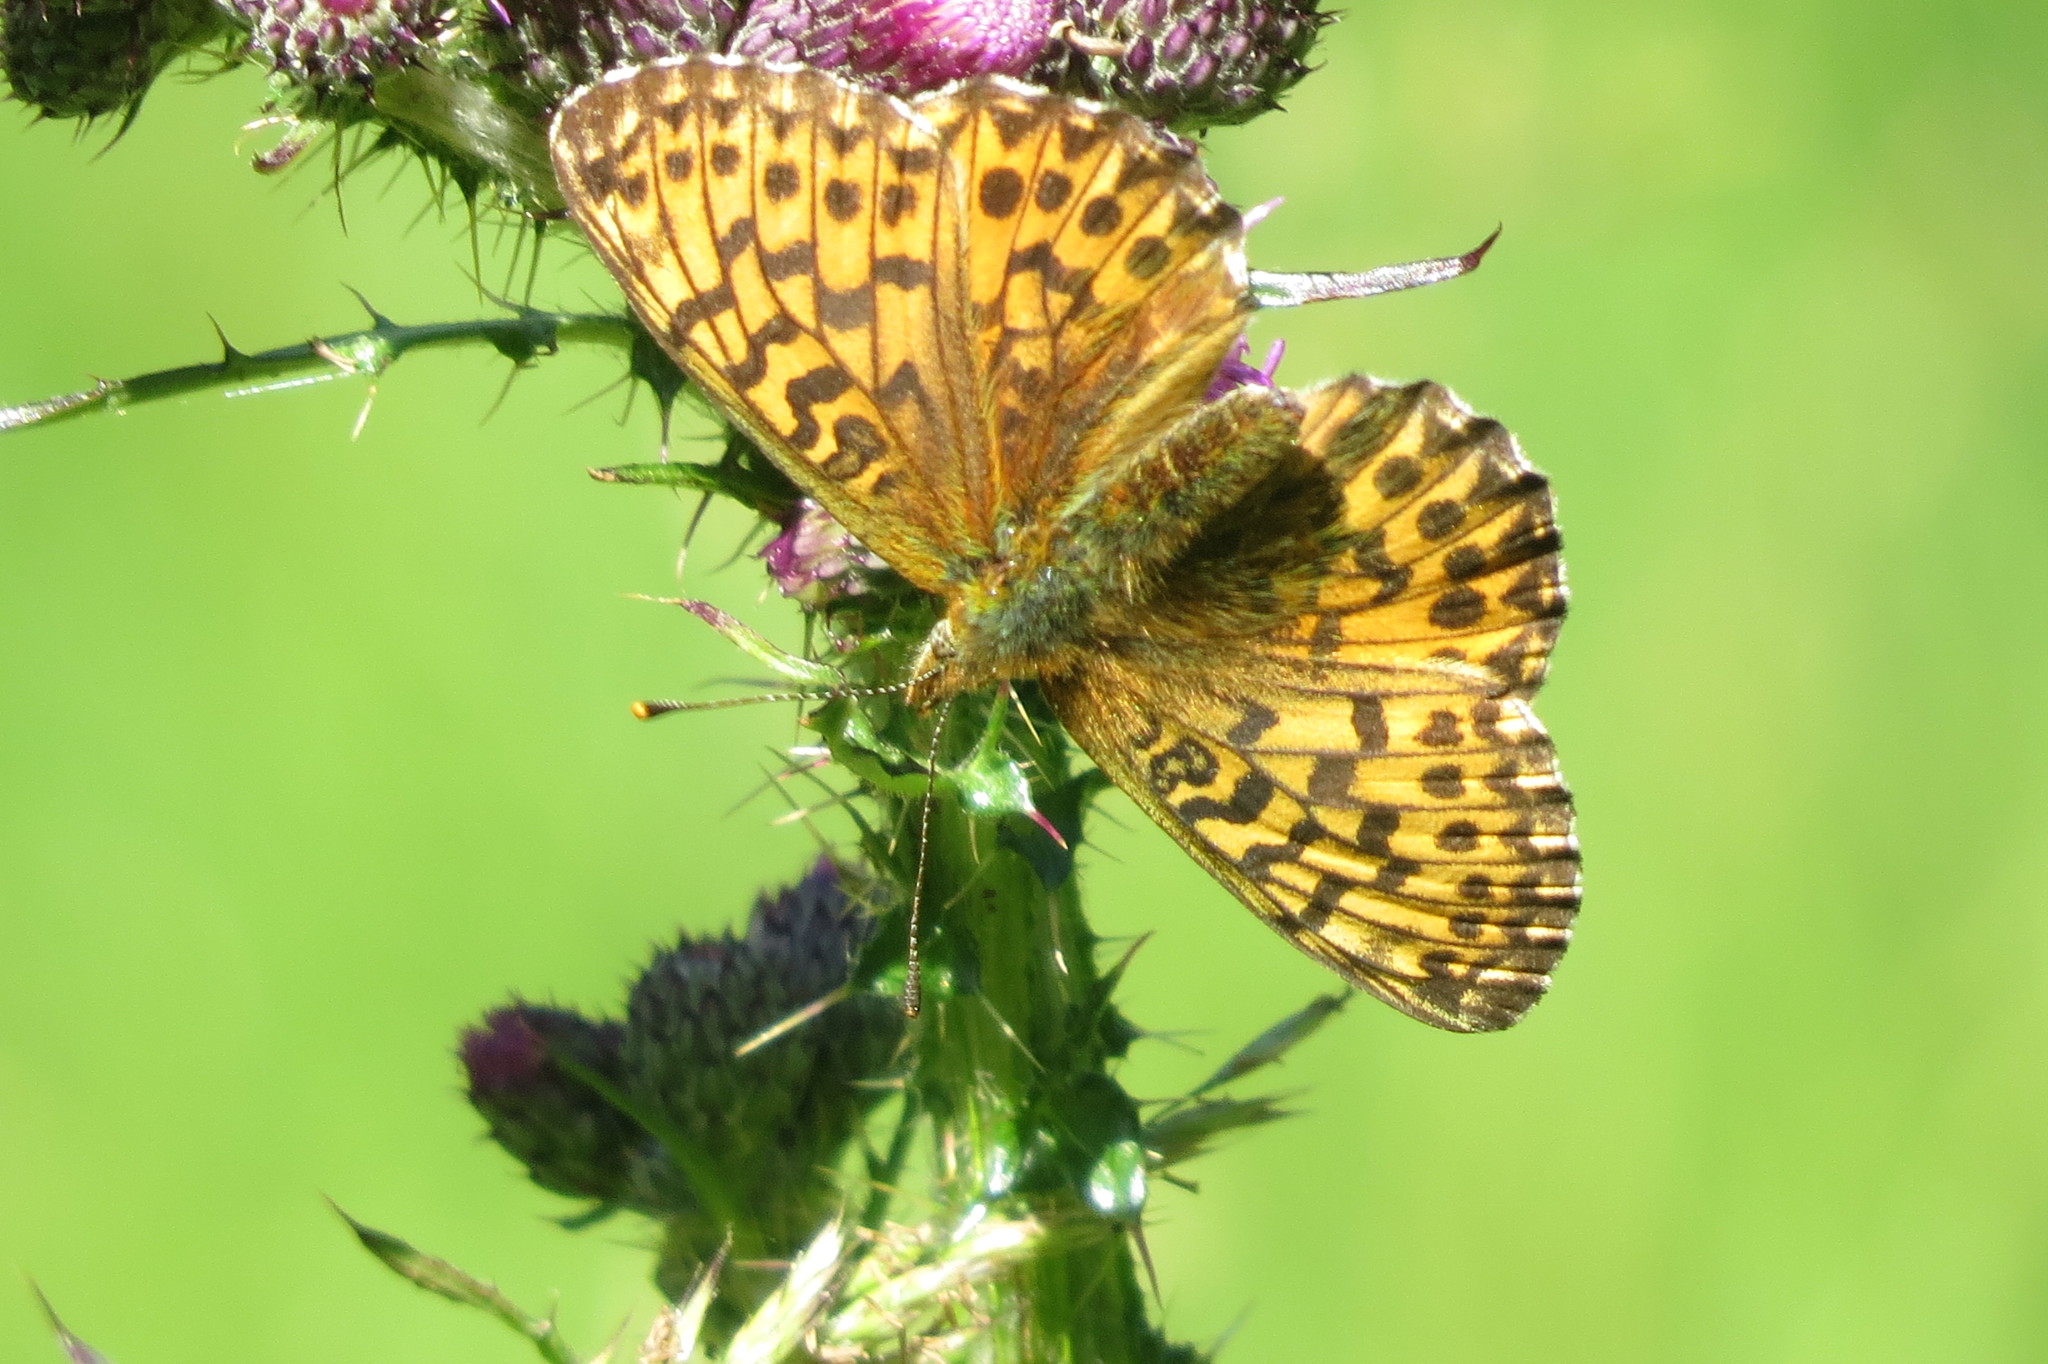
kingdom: Animalia
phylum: Arthropoda
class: Insecta
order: Lepidoptera
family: Nymphalidae
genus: Boloria
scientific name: Boloria titania
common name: Titania's fritillary
